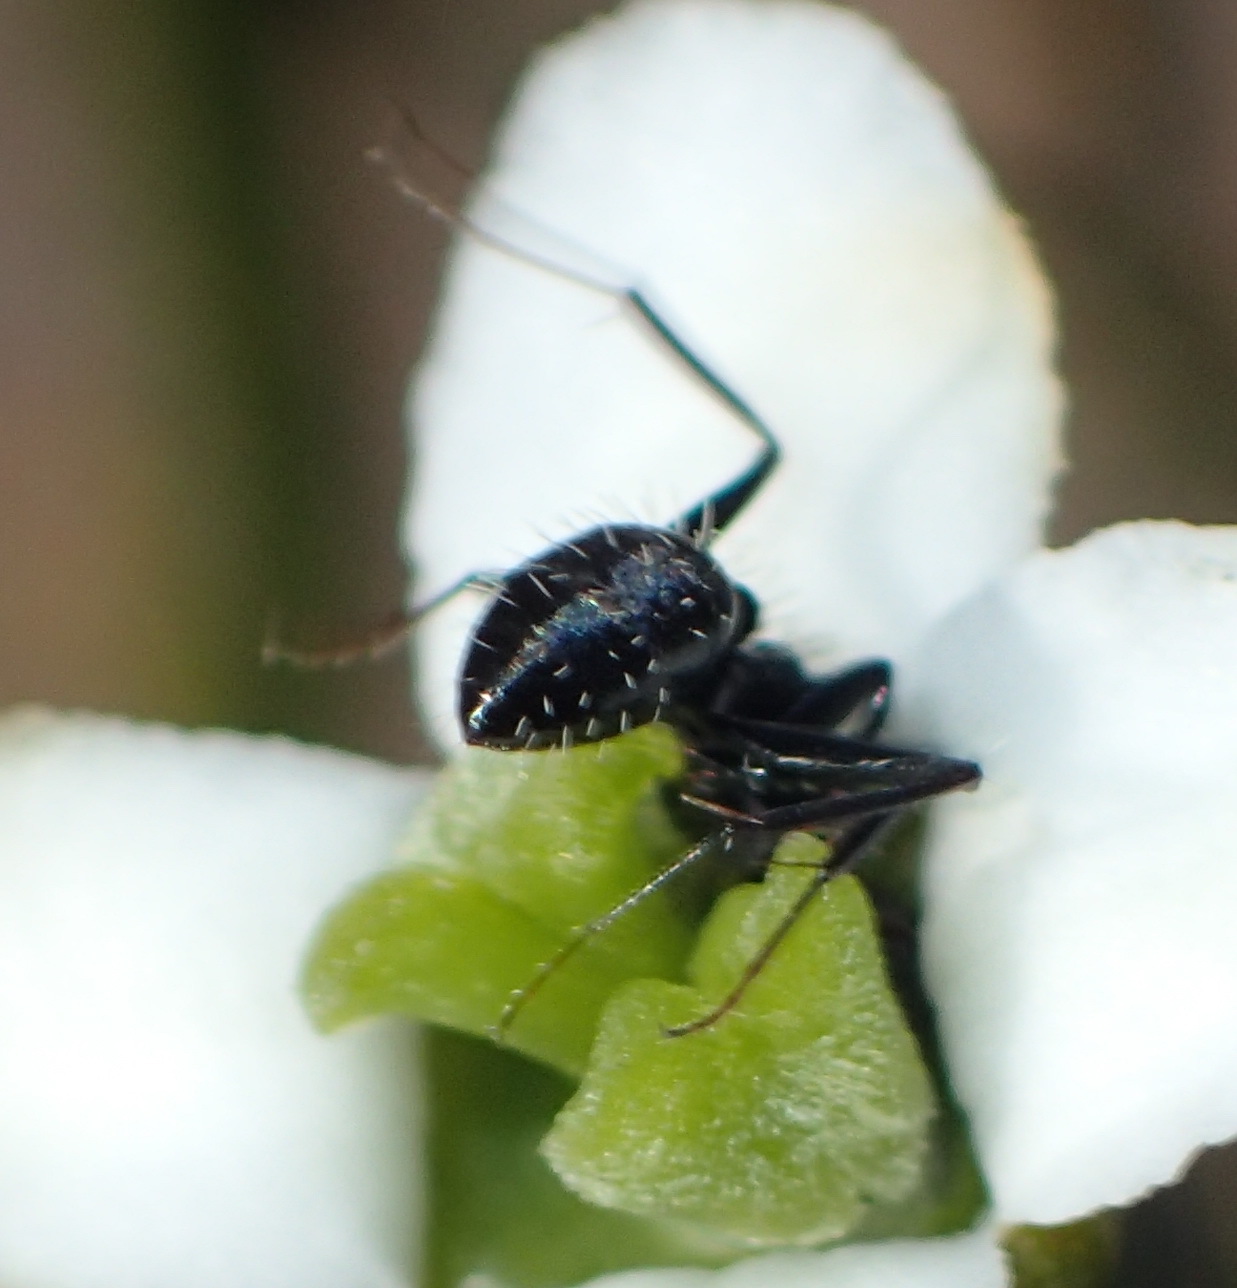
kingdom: Animalia
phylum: Arthropoda
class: Insecta
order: Hymenoptera
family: Formicidae
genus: Camponotus
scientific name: Camponotus niveosetosus
